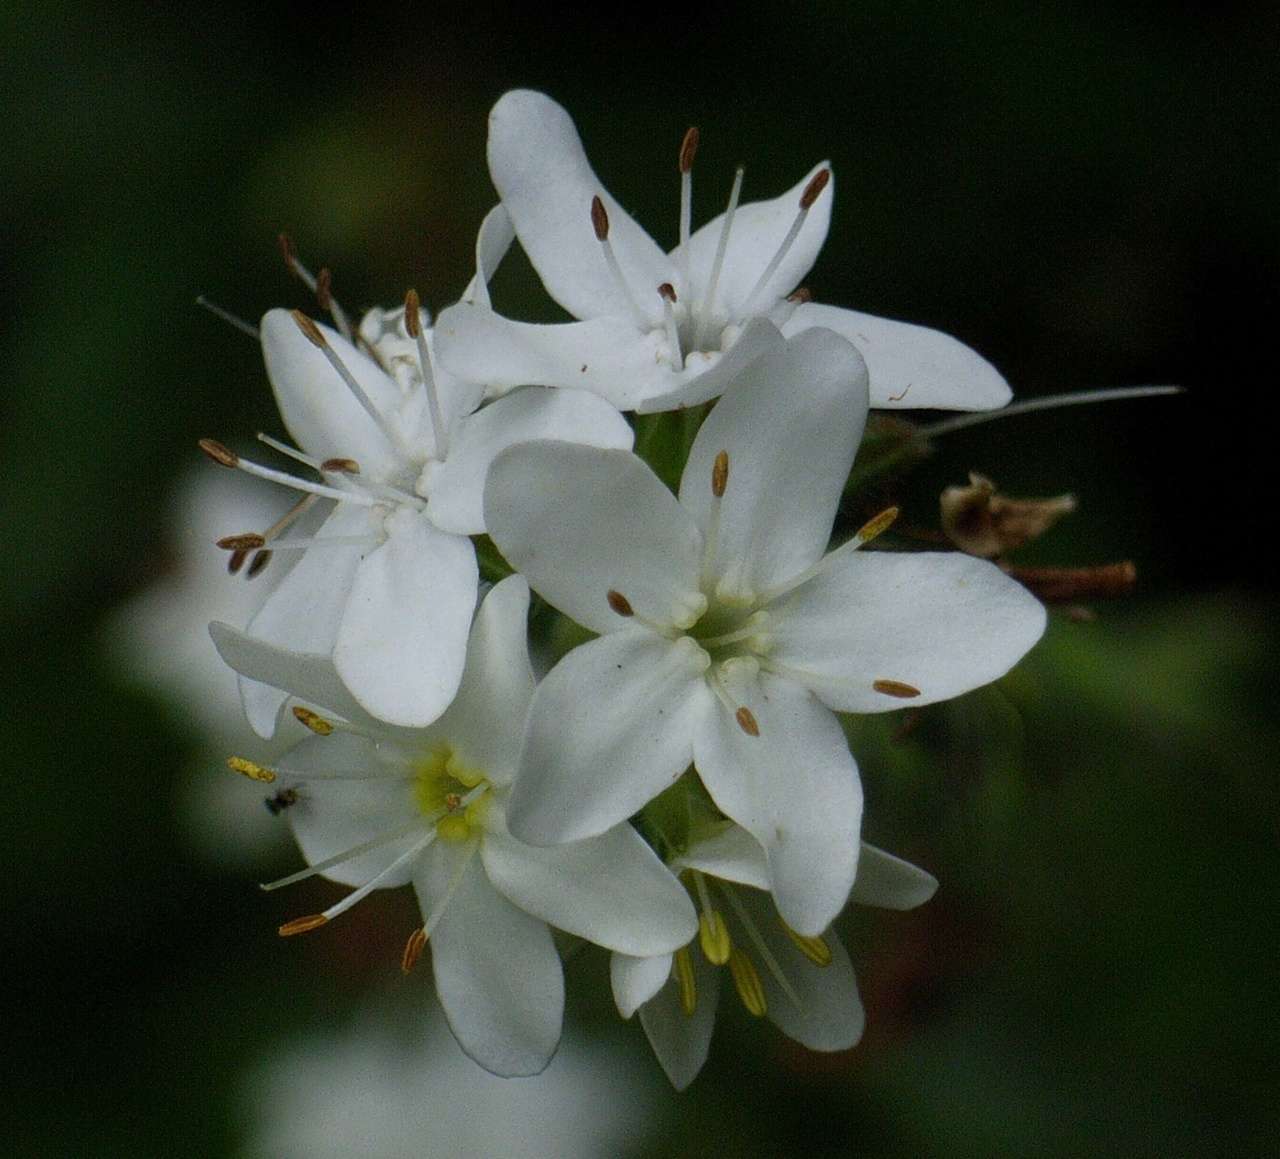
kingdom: Plantae
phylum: Tracheophyta
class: Magnoliopsida
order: Boraginales
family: Boraginaceae
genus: Myosotis
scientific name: Myosotis exarrhena
